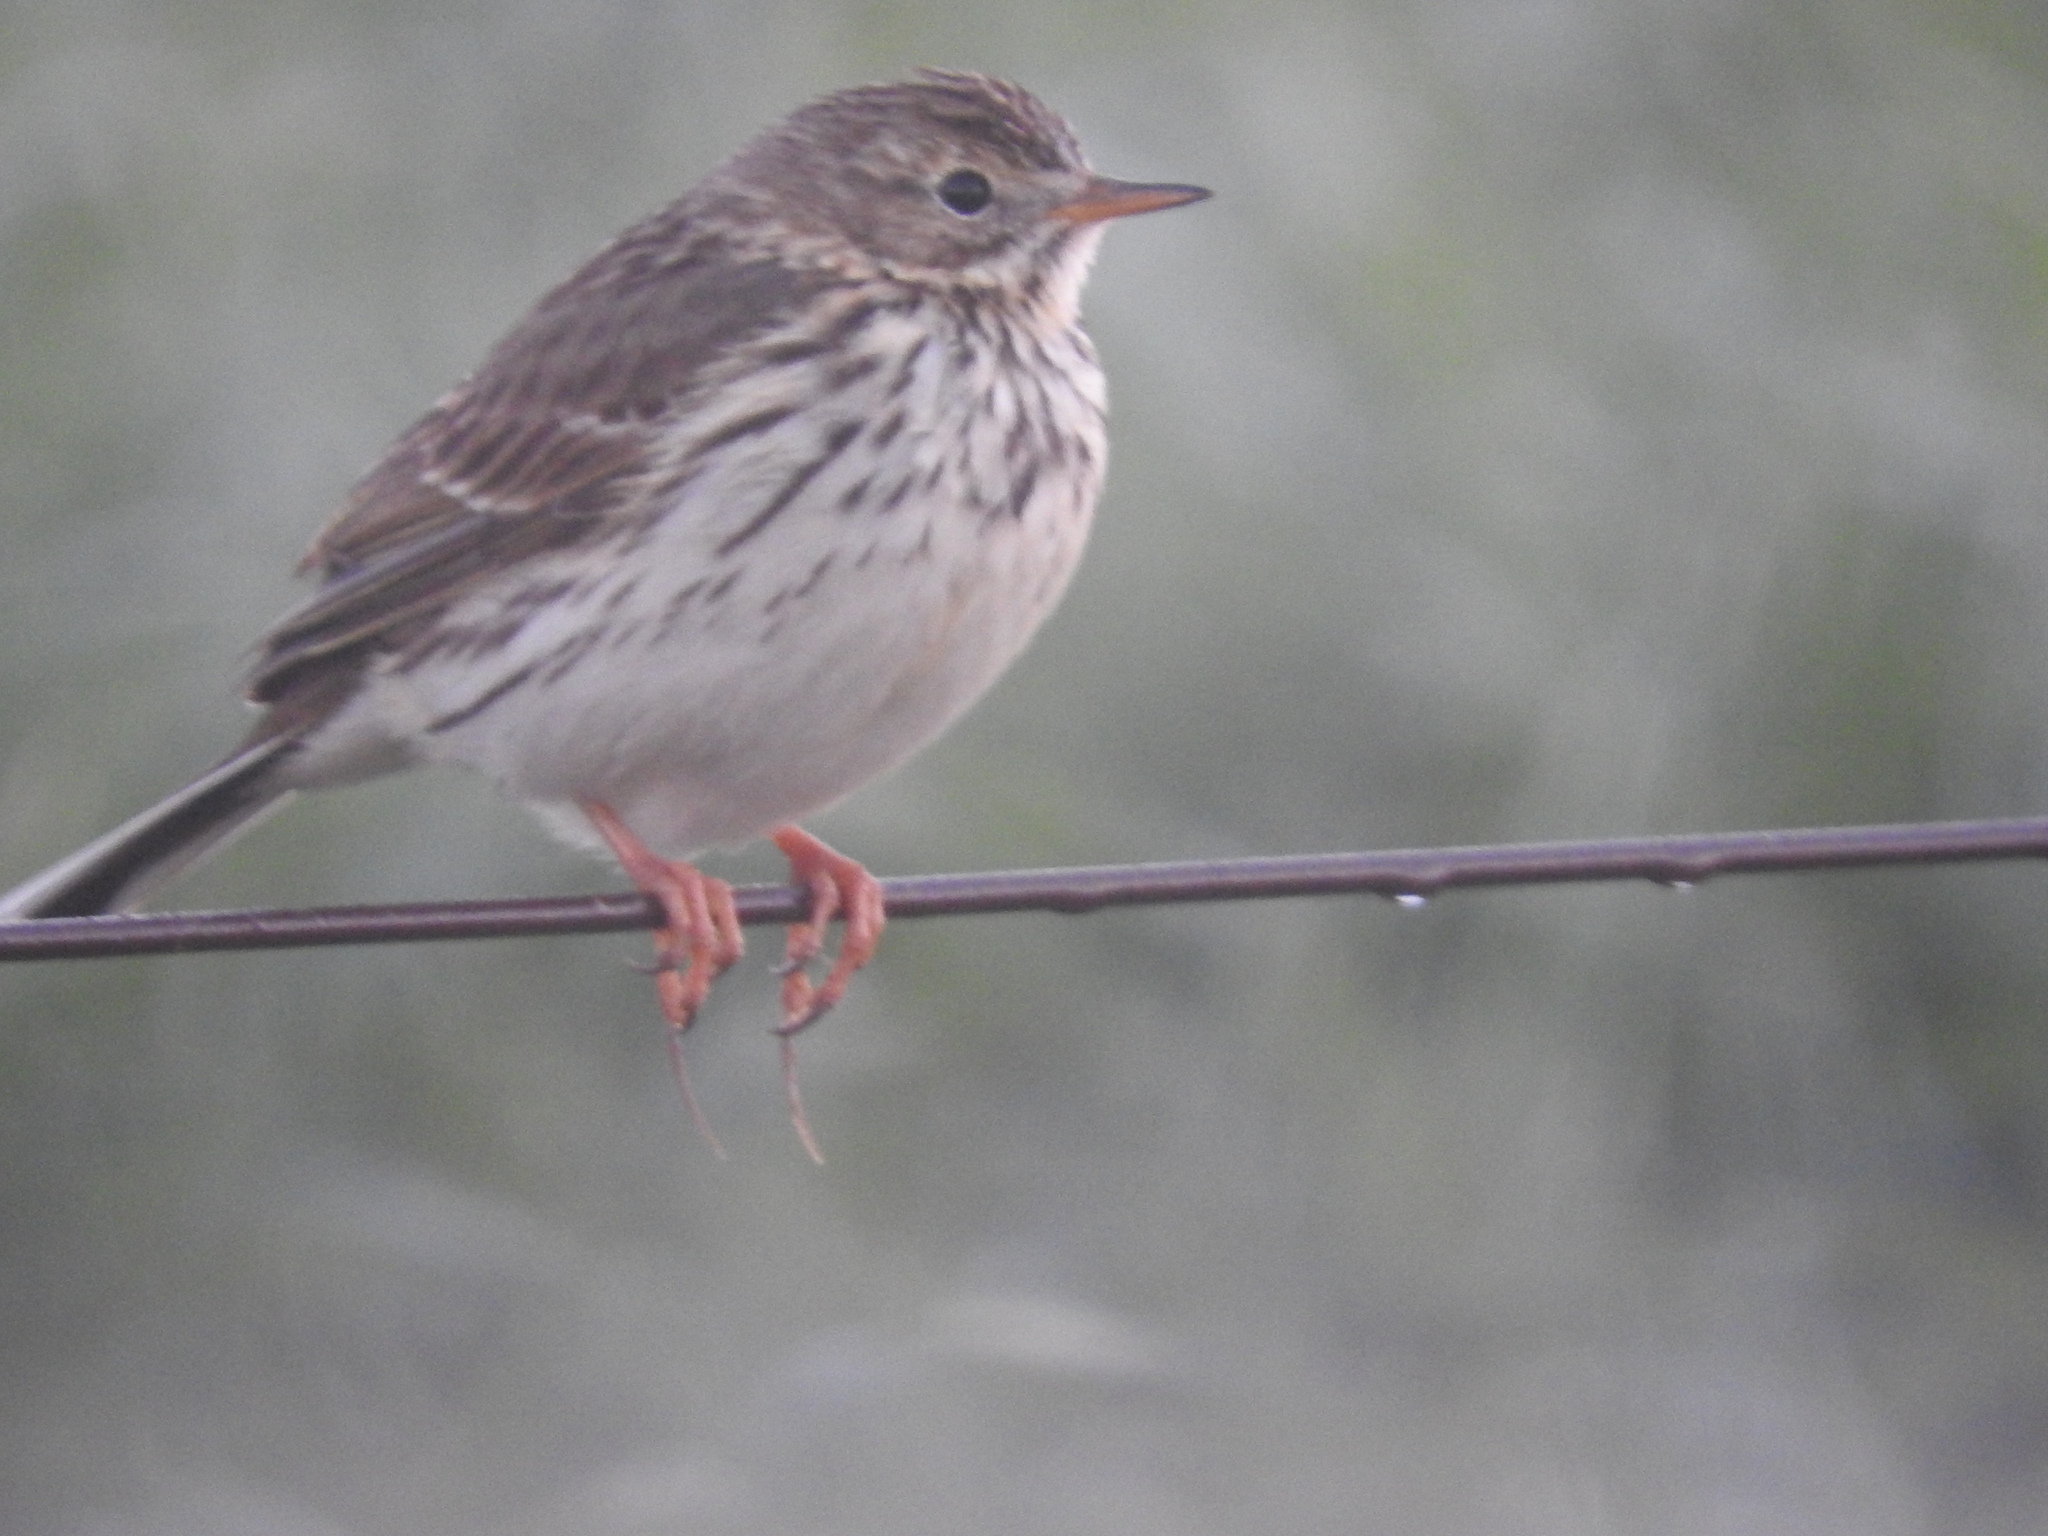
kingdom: Animalia
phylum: Chordata
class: Aves
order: Passeriformes
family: Motacillidae
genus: Anthus
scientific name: Anthus pratensis
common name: Meadow pipit
